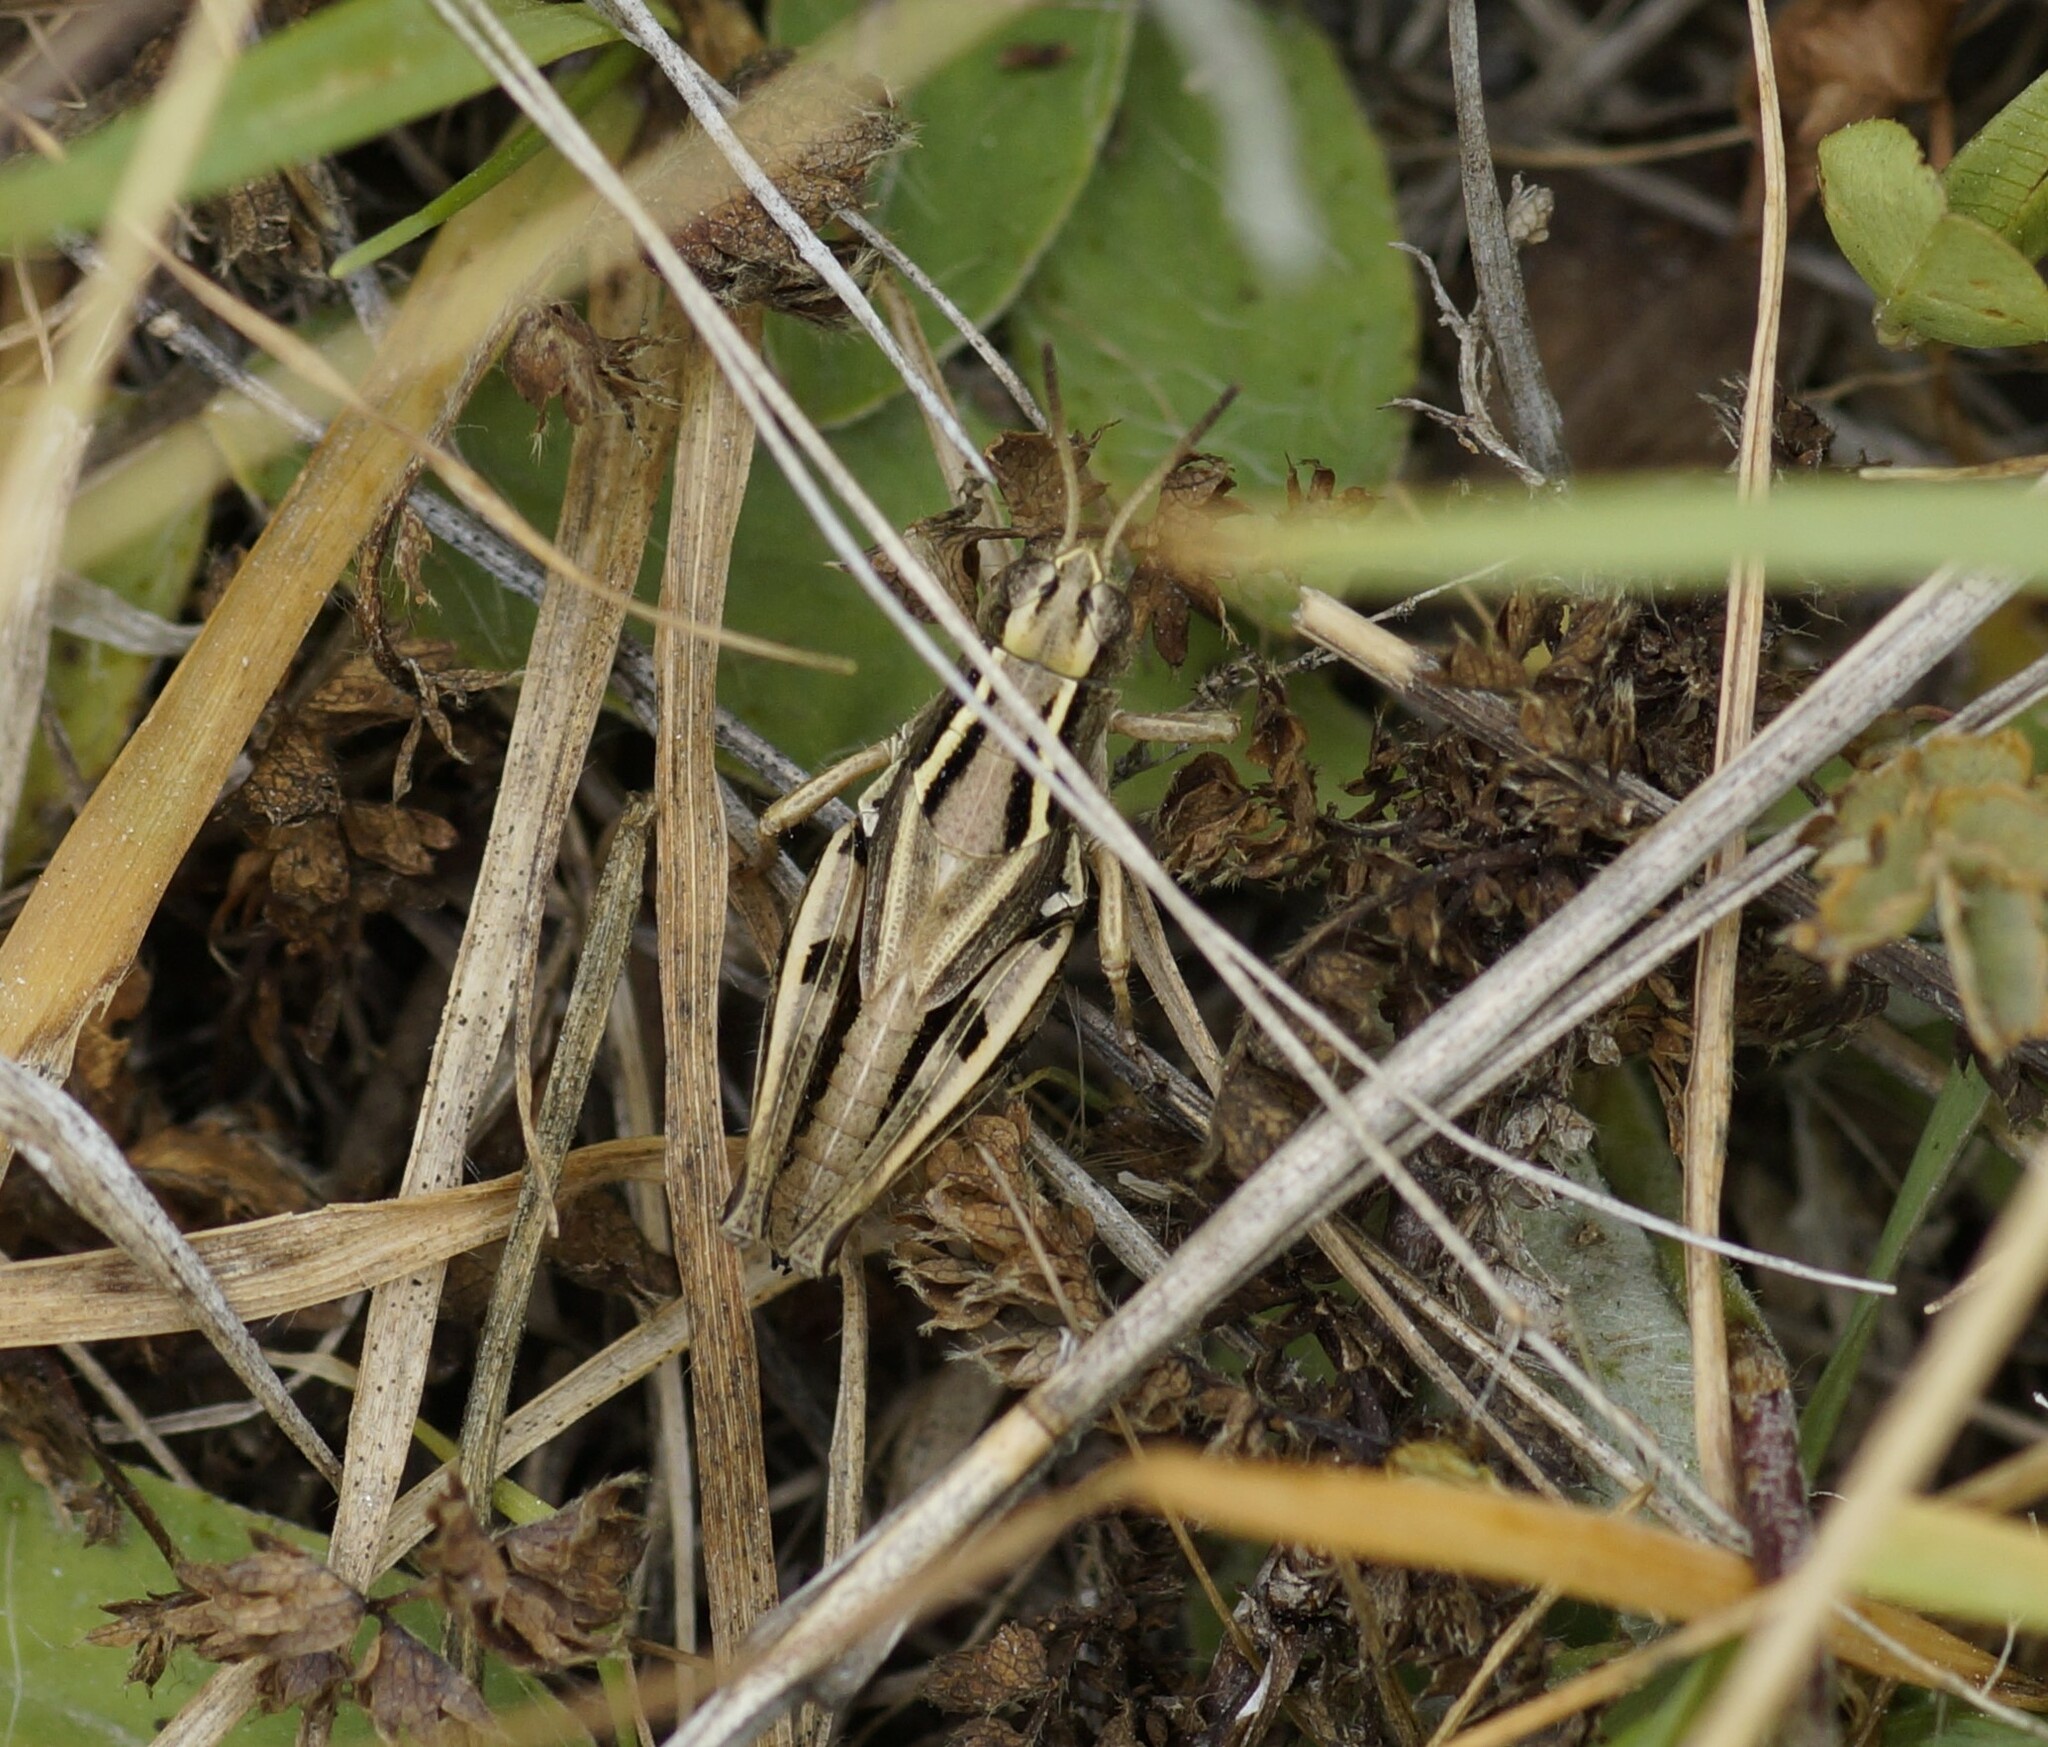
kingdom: Animalia
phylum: Arthropoda
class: Insecta
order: Orthoptera
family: Acrididae
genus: Phaulacridium
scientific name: Phaulacridium marginale
